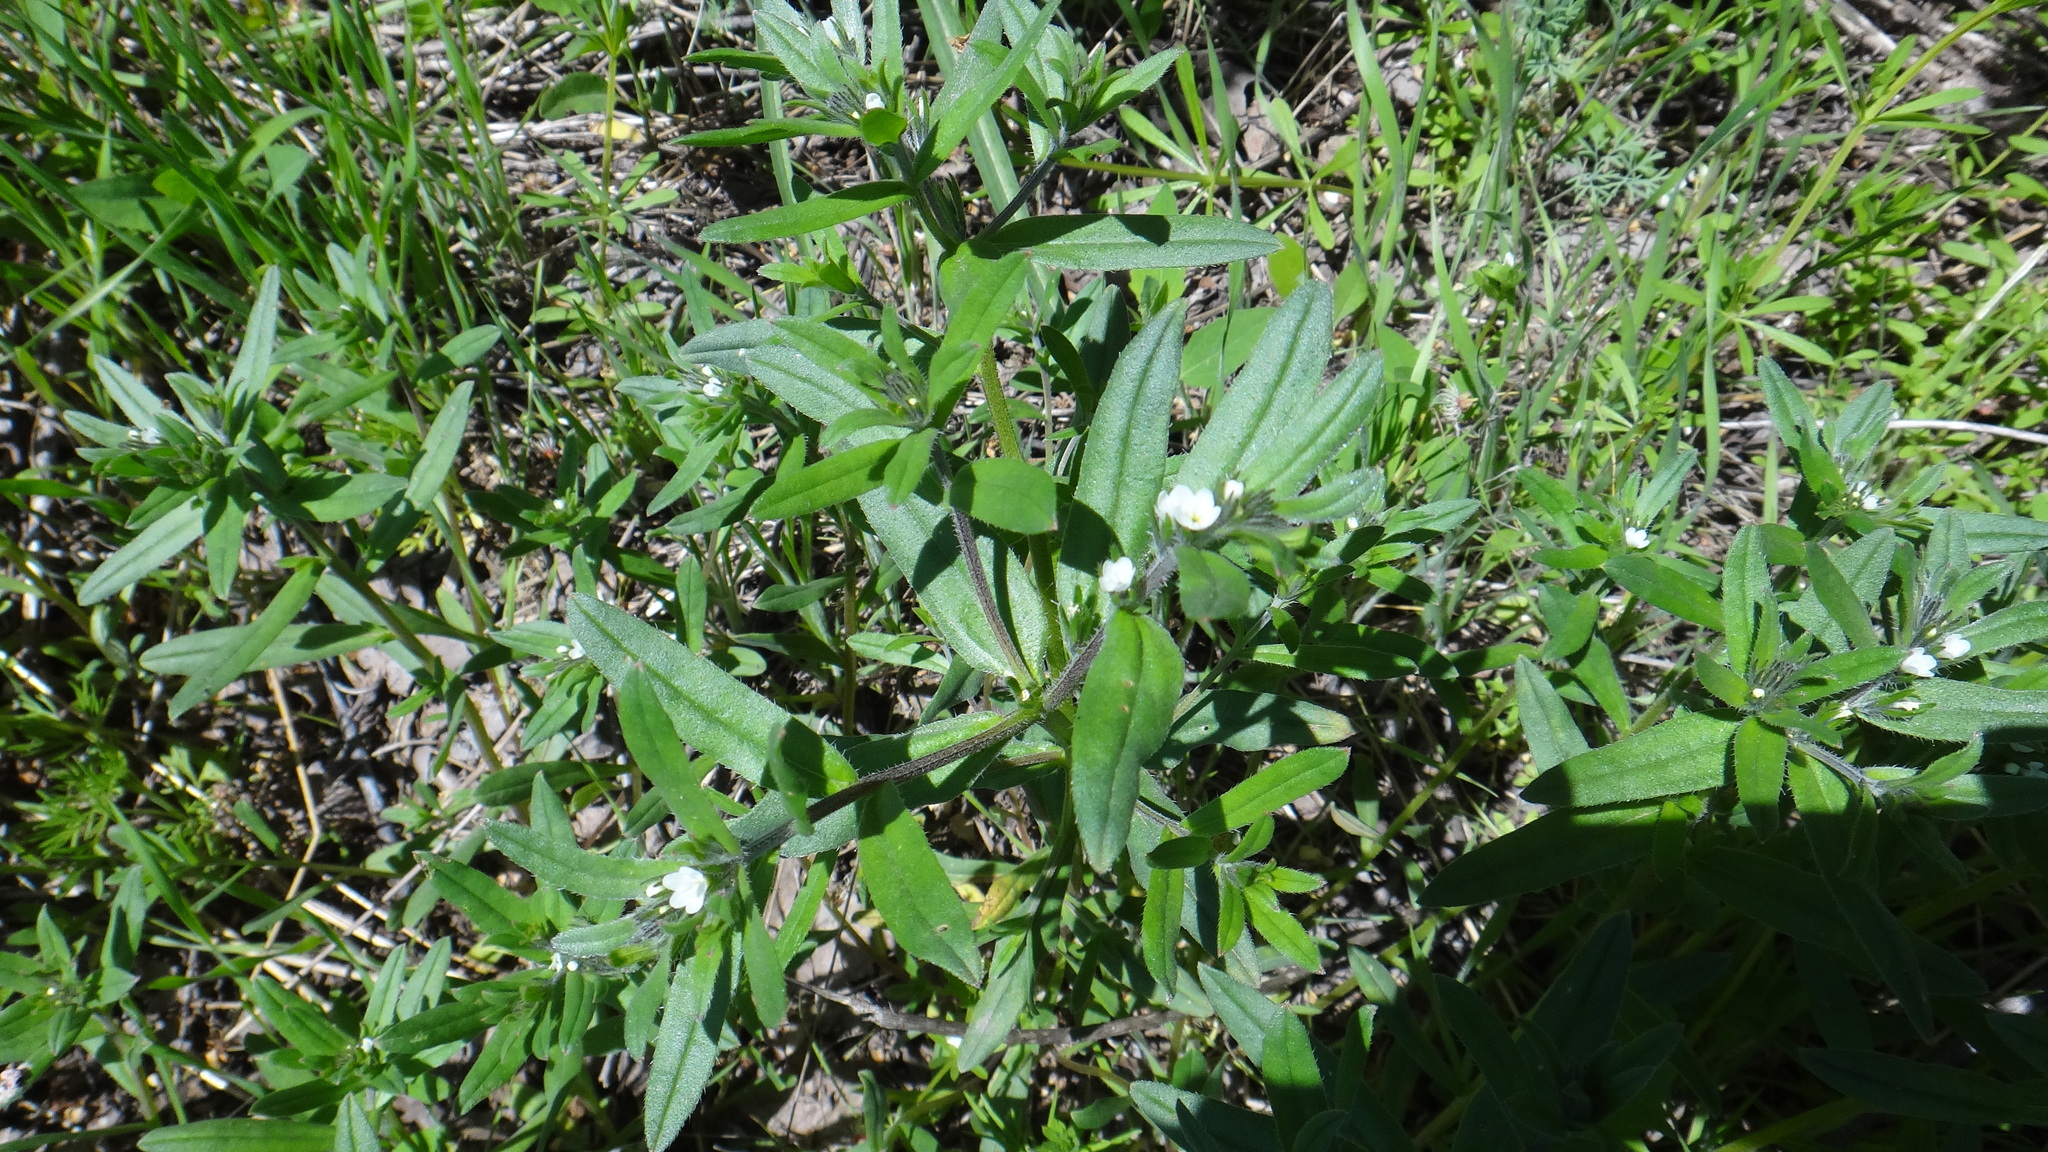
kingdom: Plantae
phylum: Tracheophyta
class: Magnoliopsida
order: Boraginales
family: Boraginaceae
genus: Buglossoides
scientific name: Buglossoides arvensis
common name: Corn gromwell
